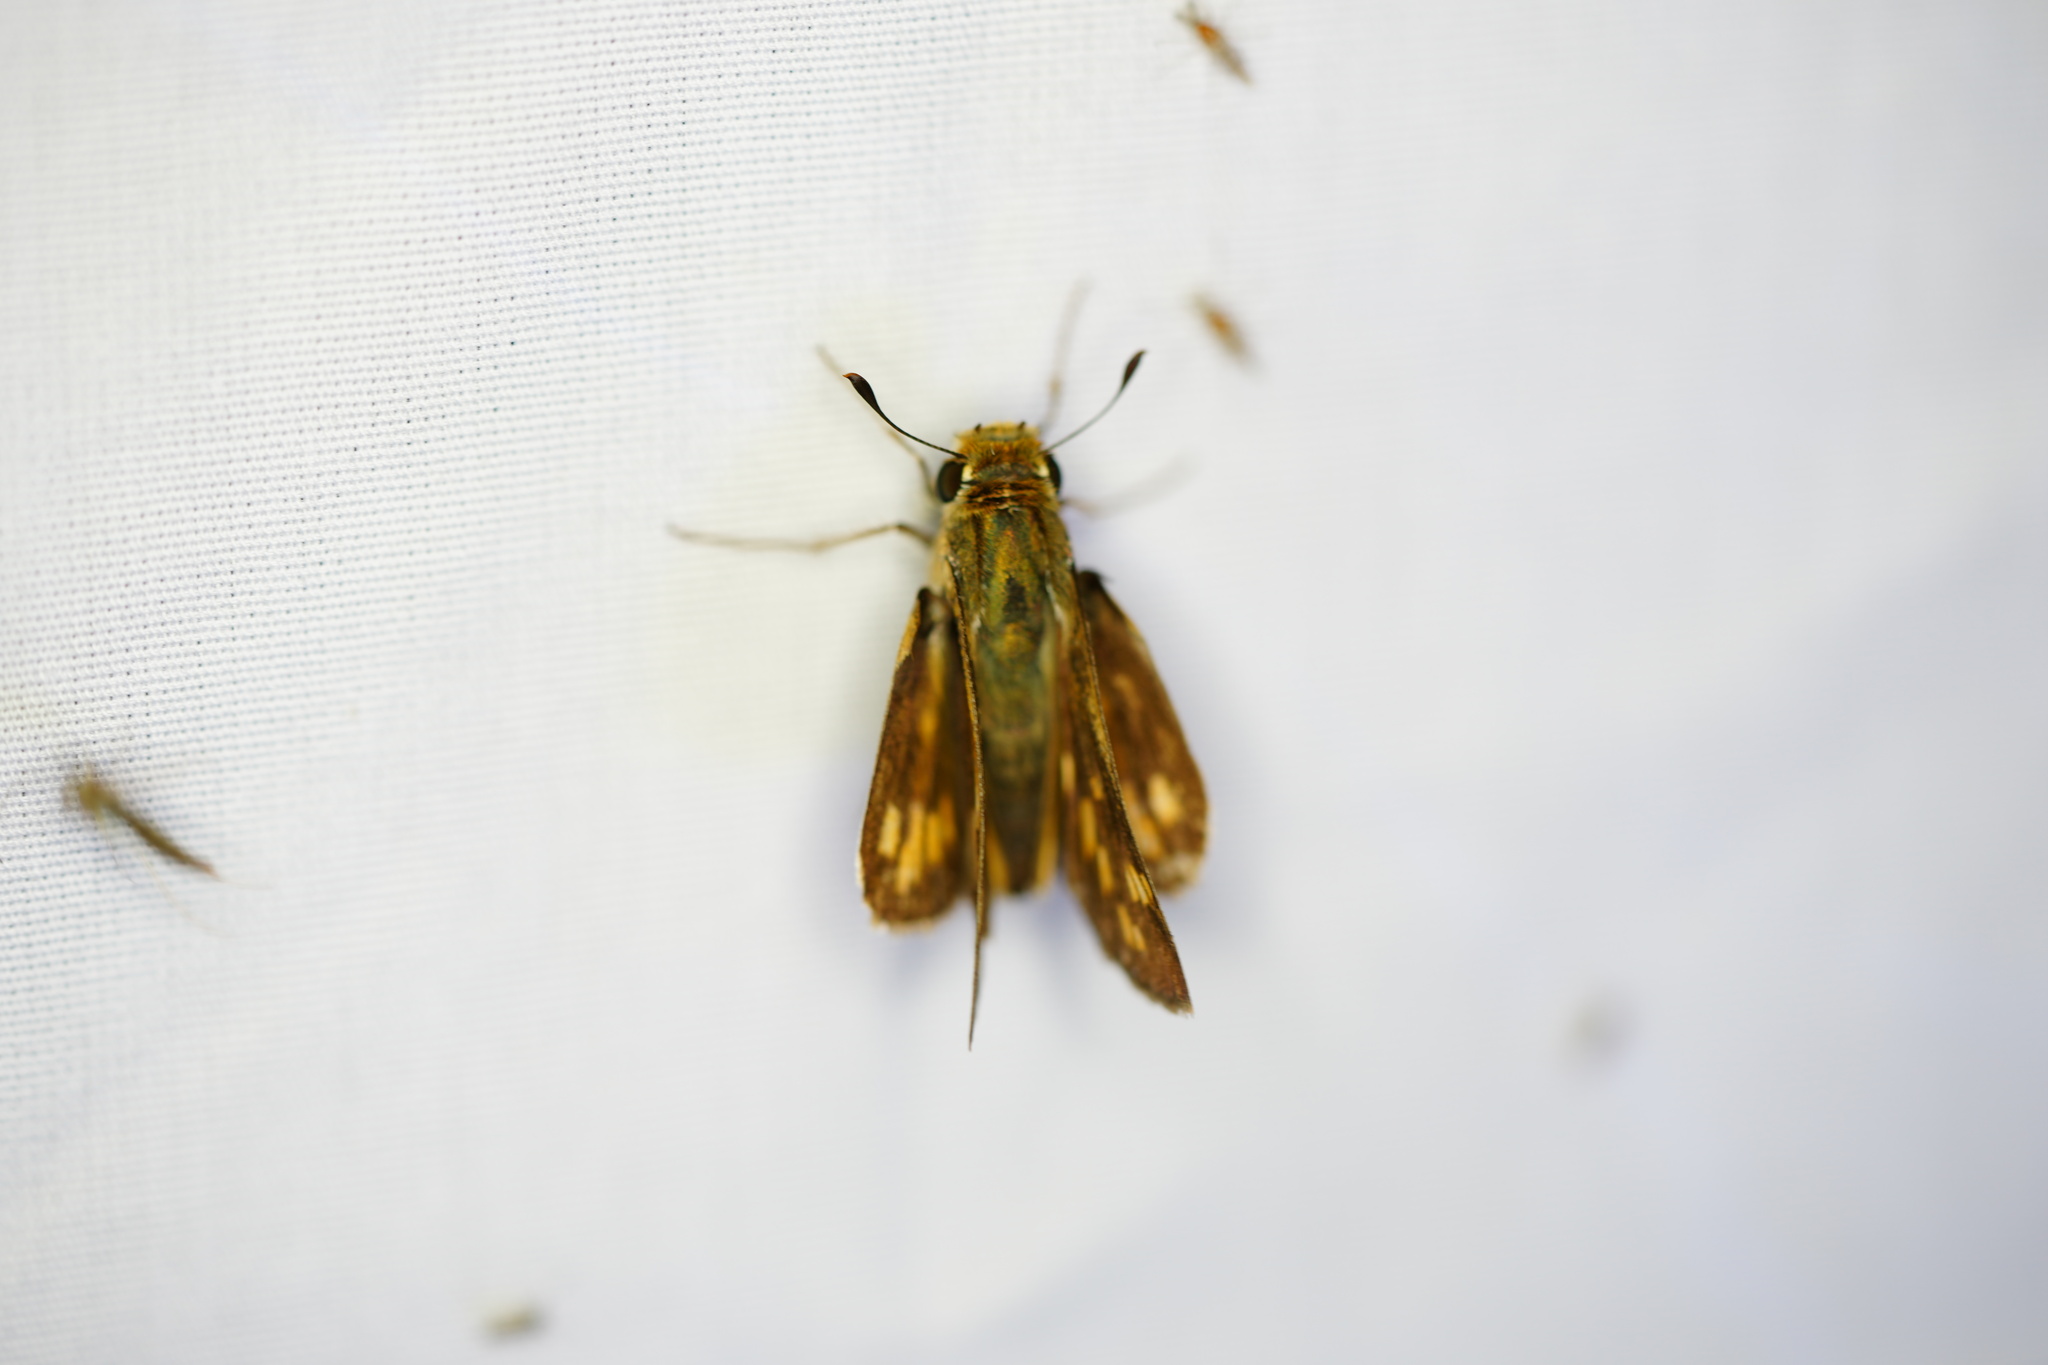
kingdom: Animalia
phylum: Arthropoda
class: Insecta
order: Lepidoptera
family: Hesperiidae
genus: Hylephila
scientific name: Hylephila phyleus
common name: Fiery skipper
